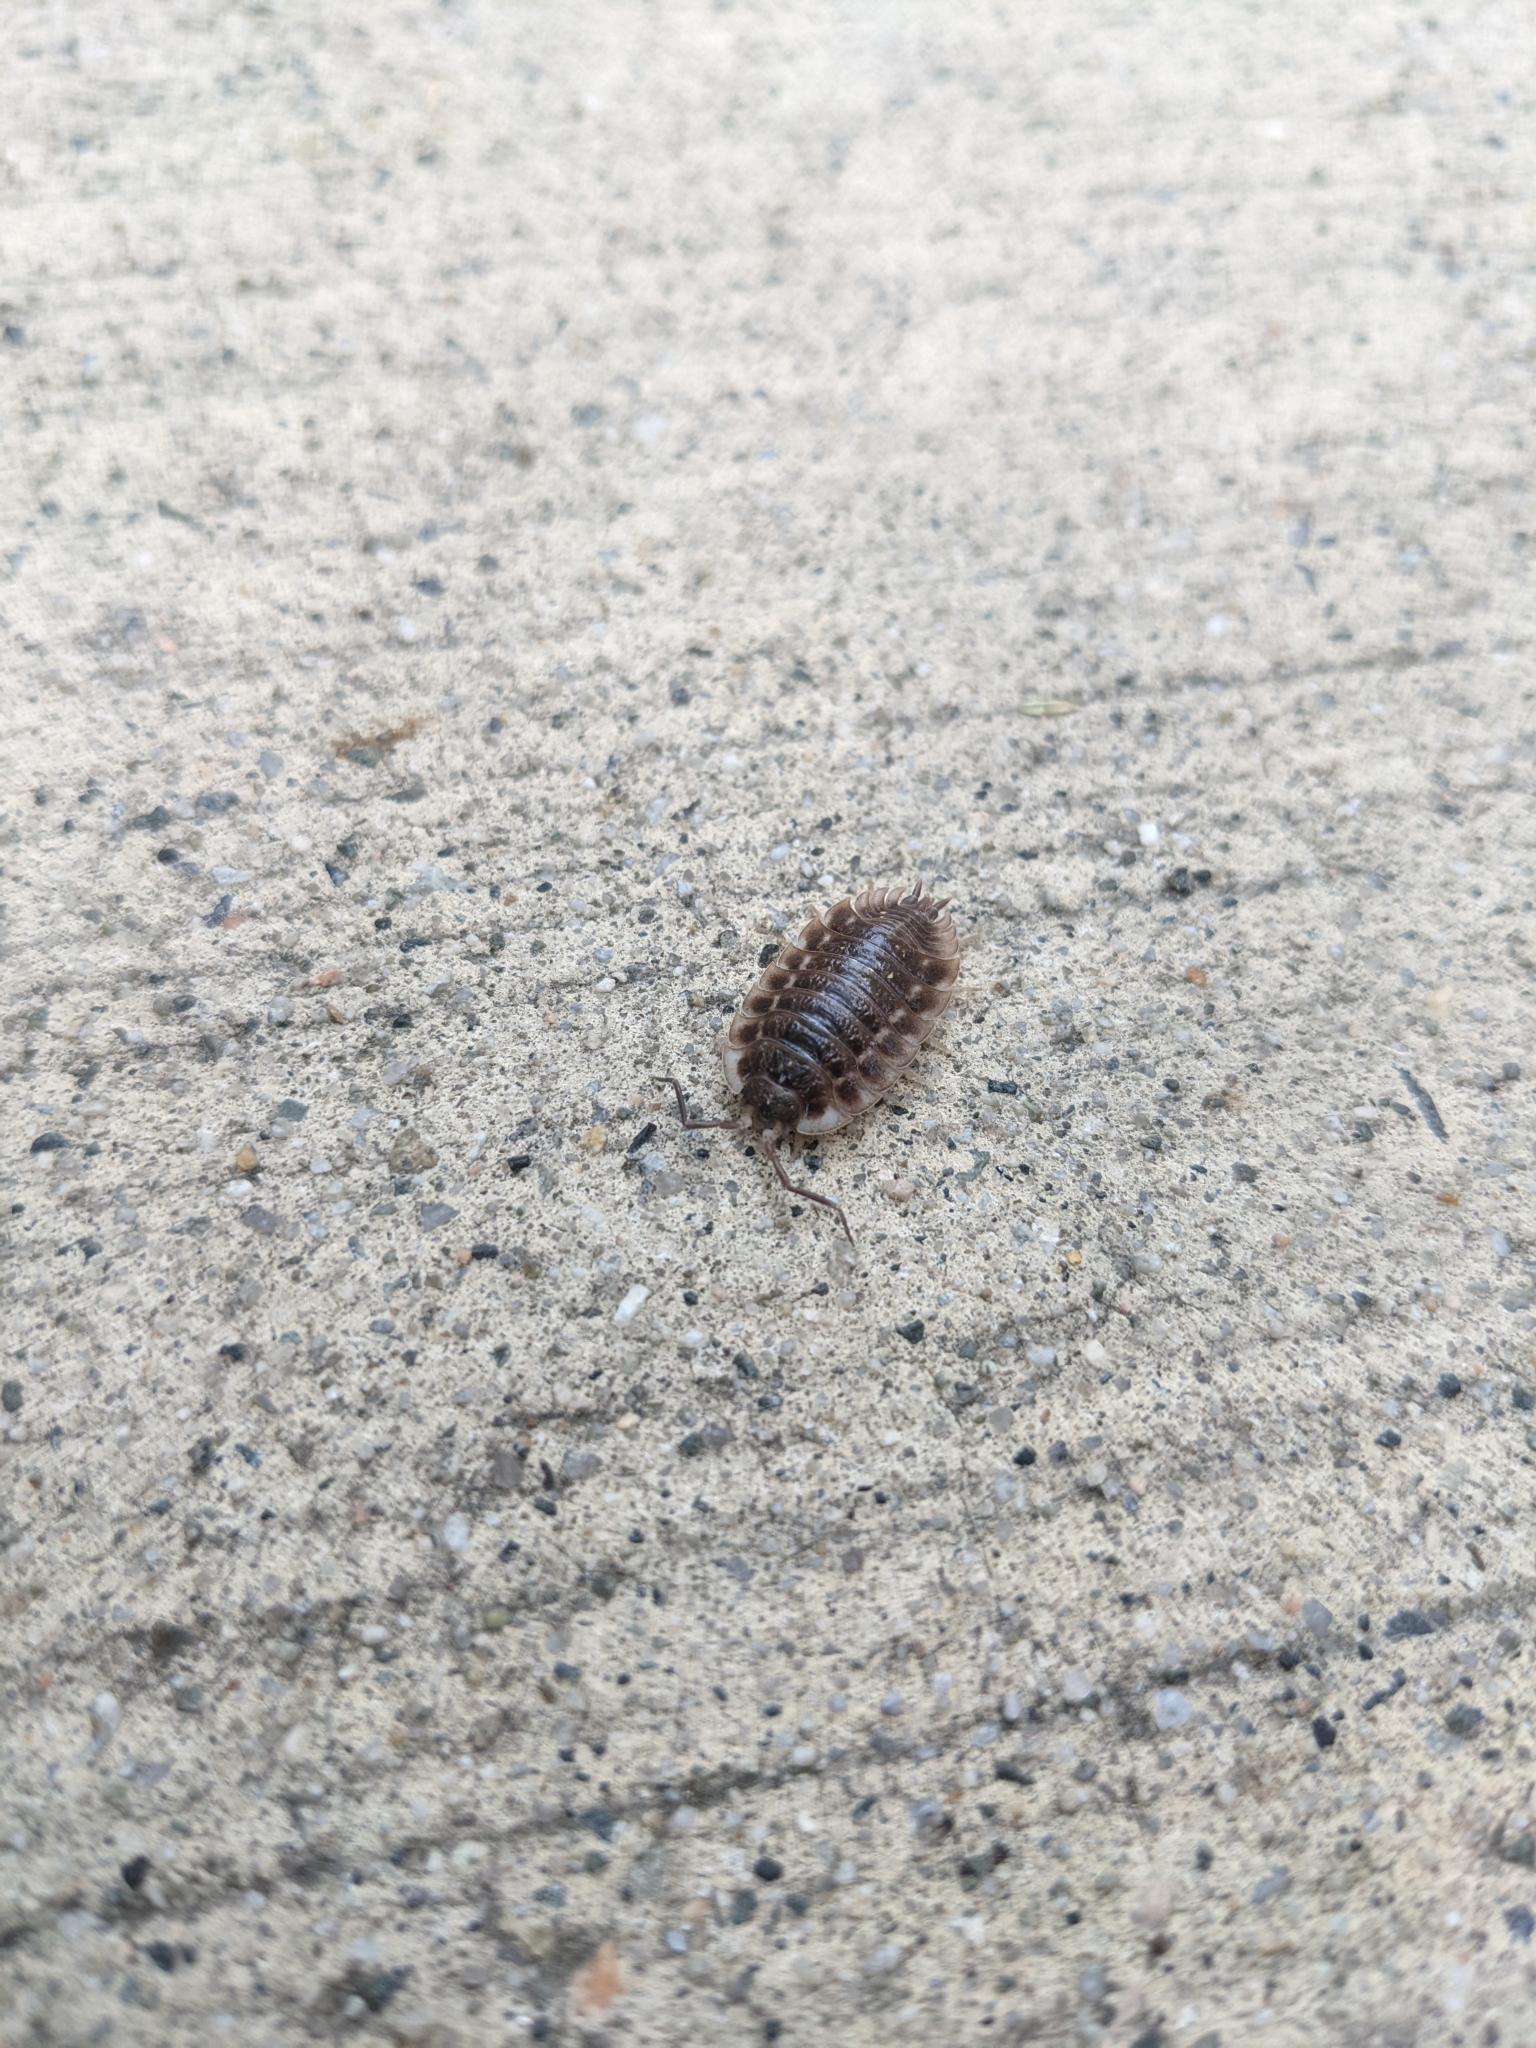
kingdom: Animalia
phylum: Arthropoda
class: Malacostraca
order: Isopoda
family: Oniscidae
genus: Oniscus
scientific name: Oniscus asellus
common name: Common shiny woodlouse
